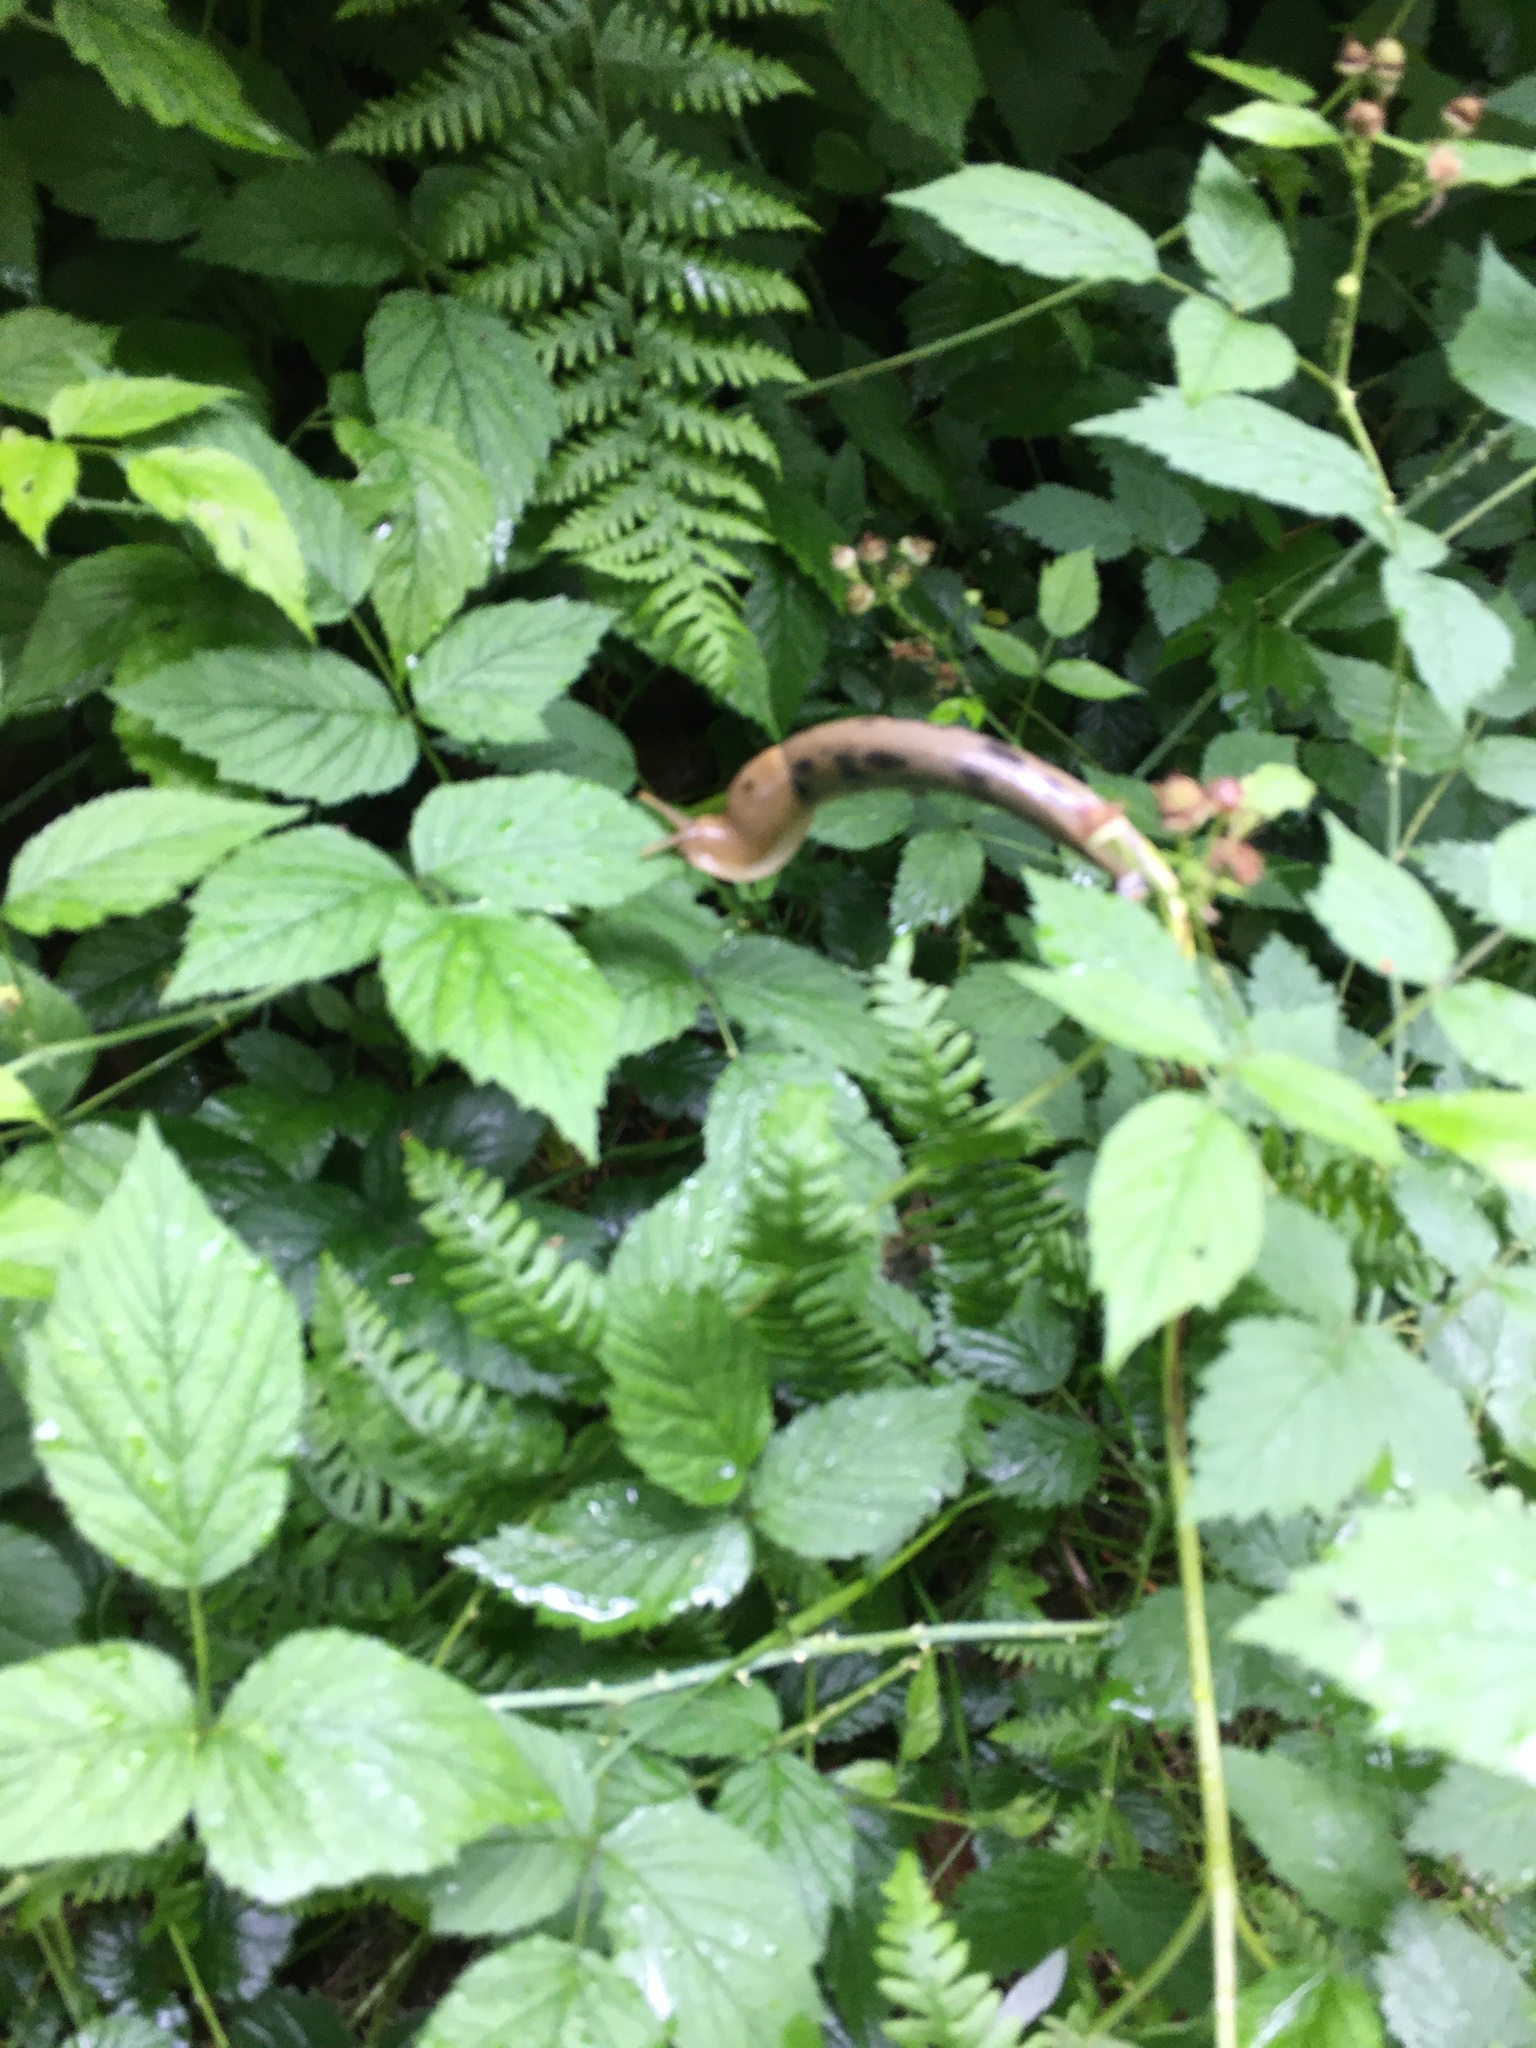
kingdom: Animalia
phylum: Mollusca
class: Gastropoda
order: Stylommatophora
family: Ariolimacidae
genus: Ariolimax
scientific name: Ariolimax columbianus
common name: Pacific banana slug
